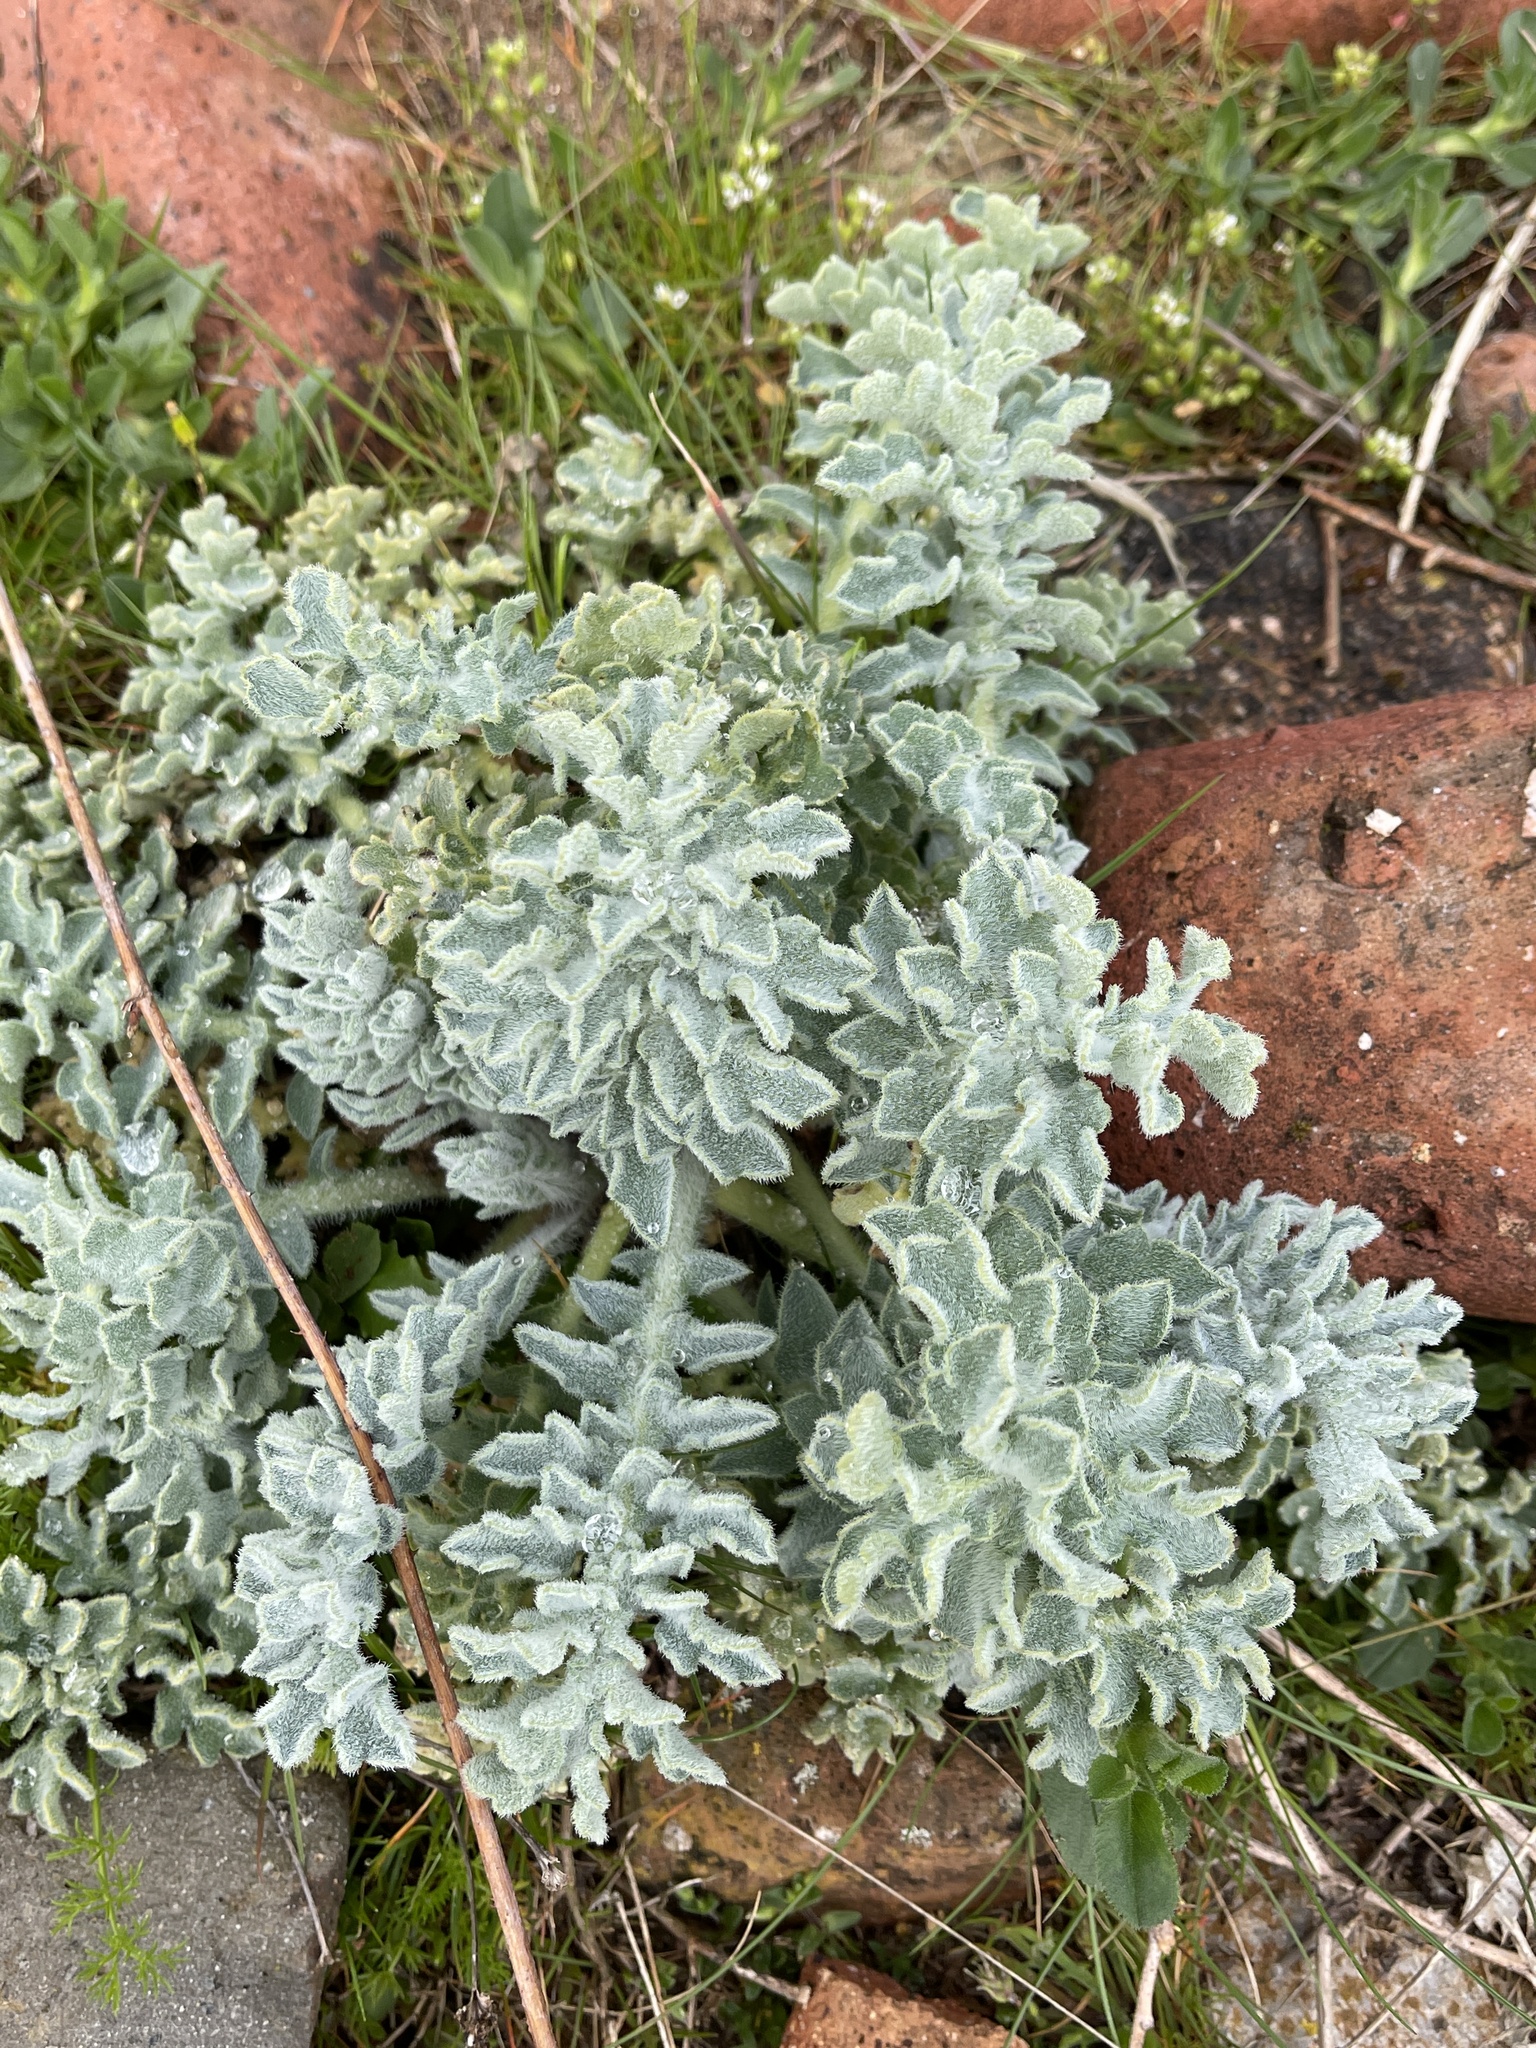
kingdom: Plantae
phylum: Tracheophyta
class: Magnoliopsida
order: Ranunculales
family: Papaveraceae
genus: Glaucium
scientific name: Glaucium flavum
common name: Yellow horned-poppy
